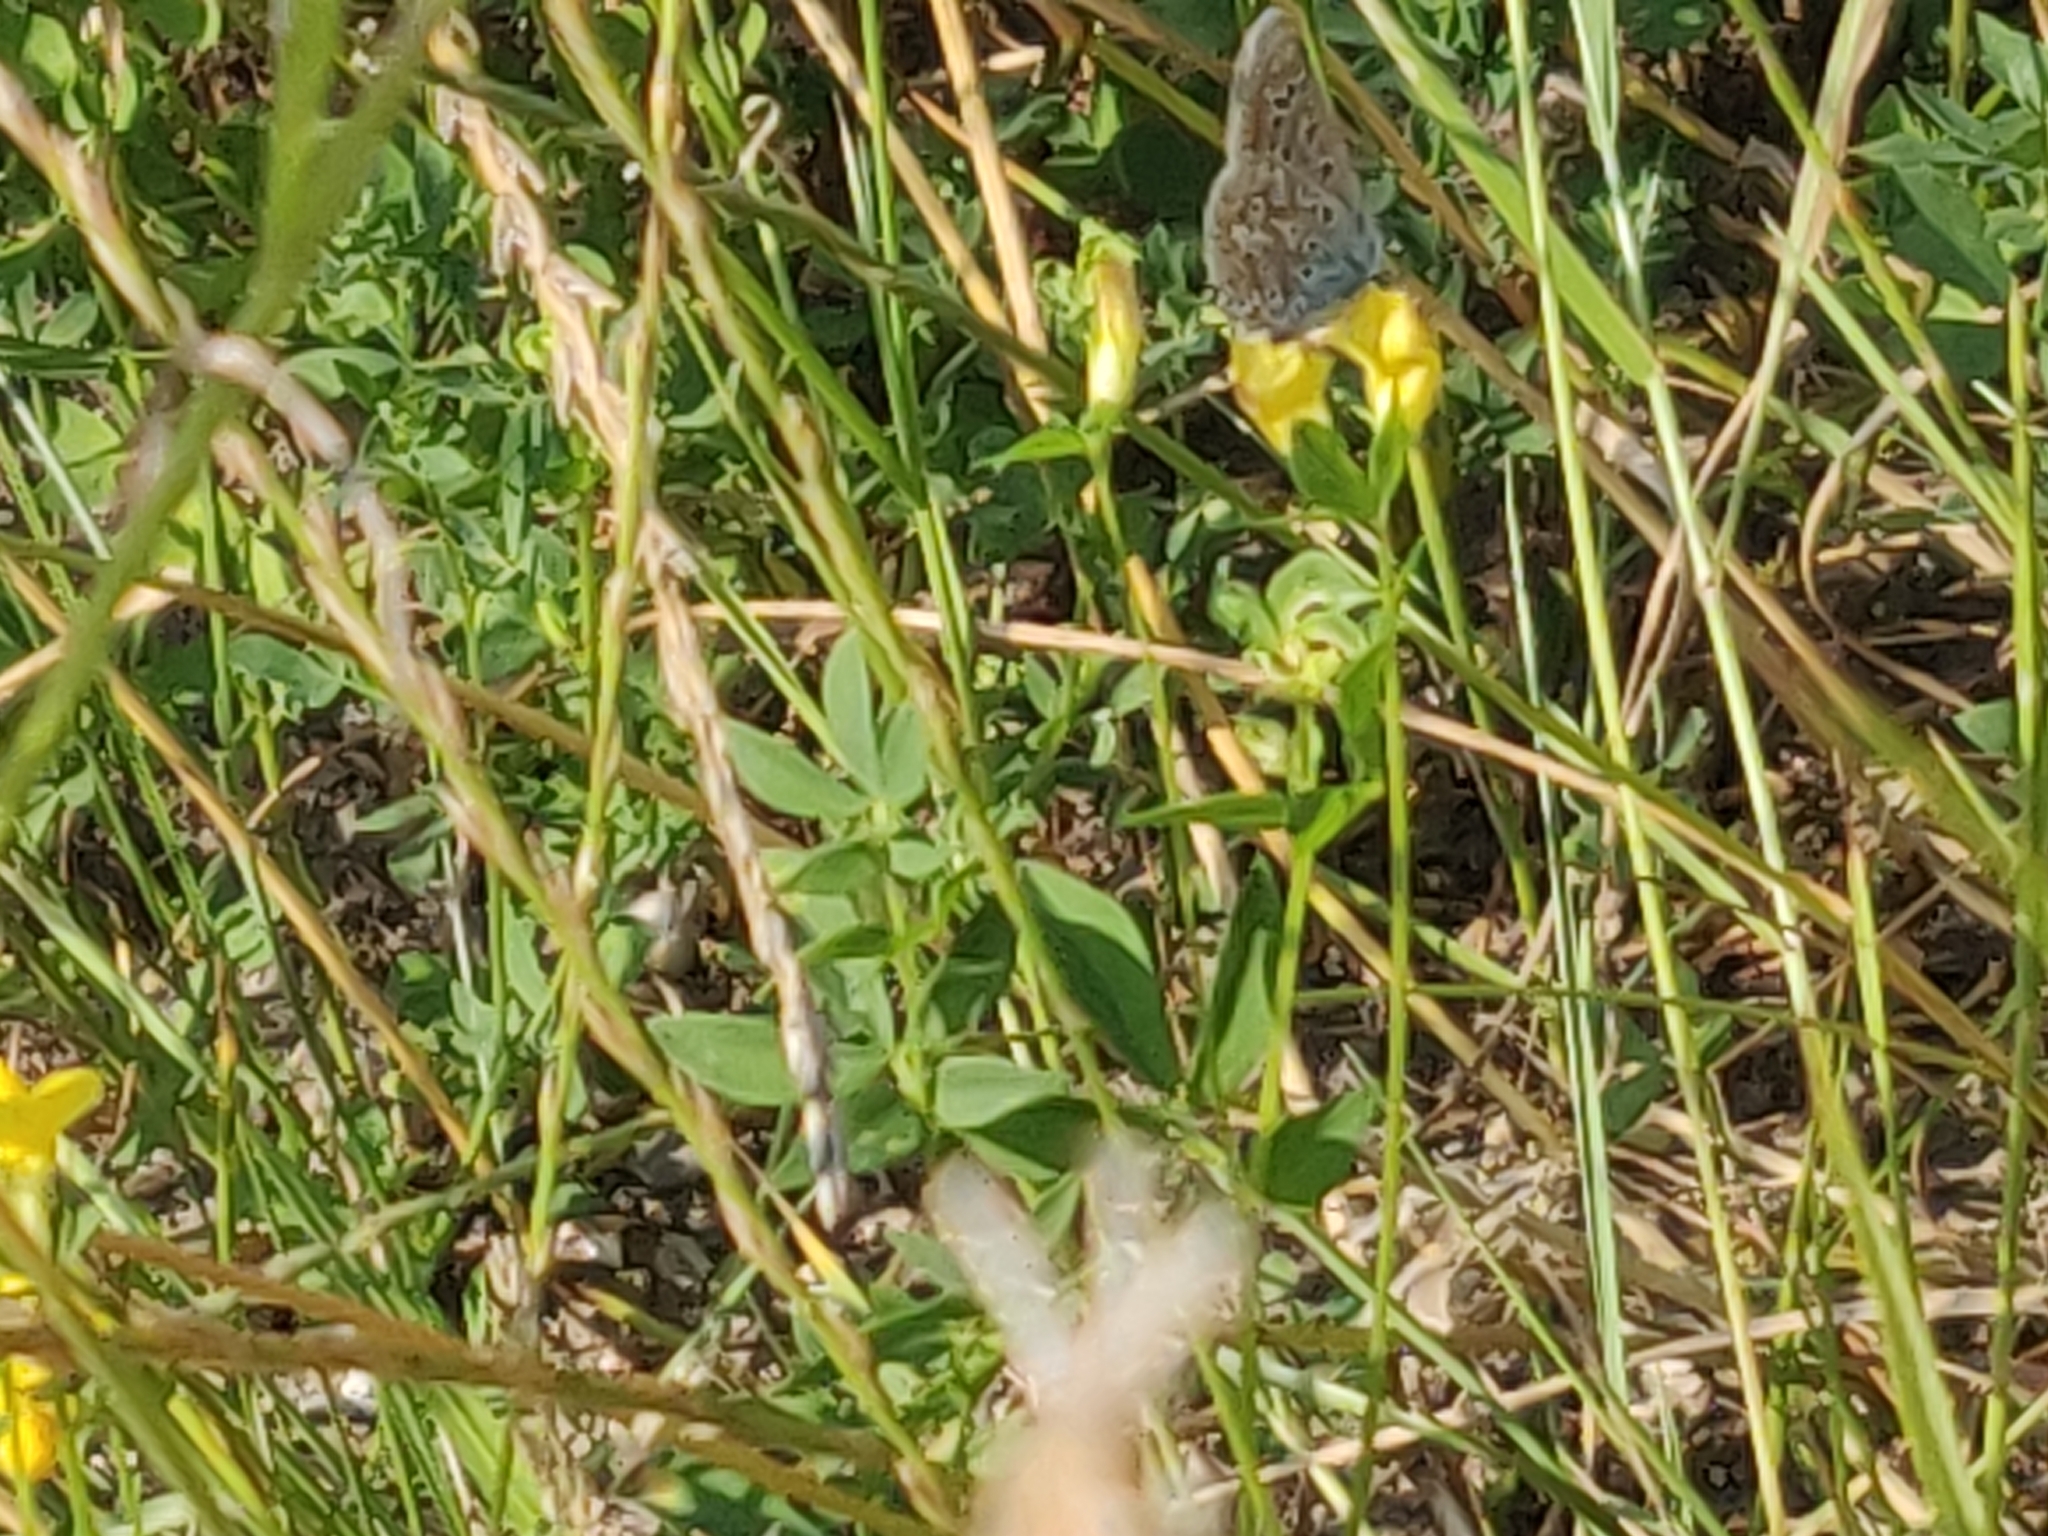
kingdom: Animalia
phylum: Arthropoda
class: Insecta
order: Lepidoptera
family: Lycaenidae
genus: Polyommatus
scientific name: Polyommatus icarus
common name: Common blue
